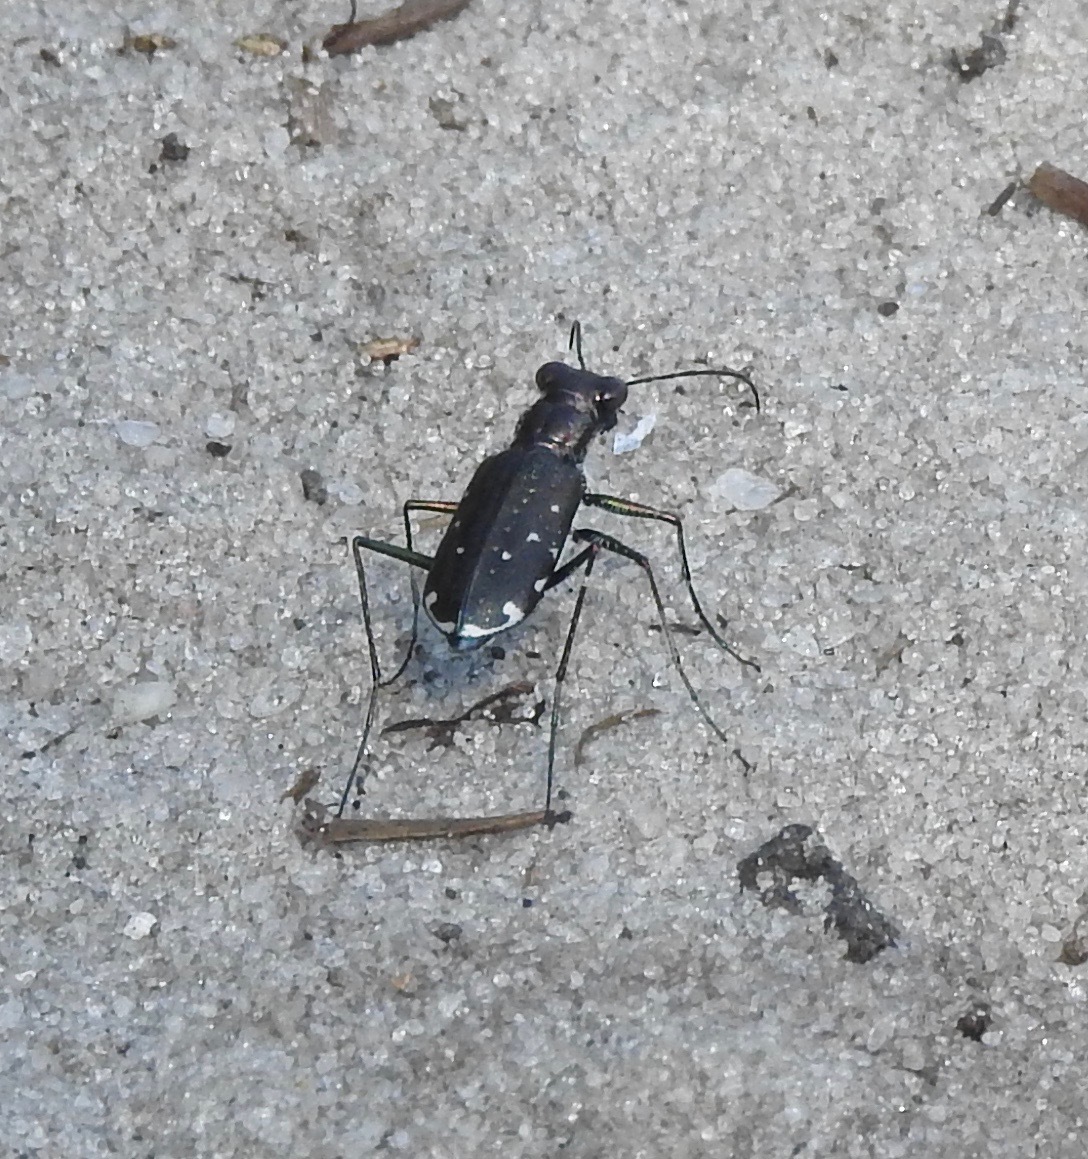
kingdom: Animalia
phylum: Arthropoda
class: Insecta
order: Coleoptera
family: Carabidae
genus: Cicindela
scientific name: Cicindela punctulata
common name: Punctured tiger beetle
